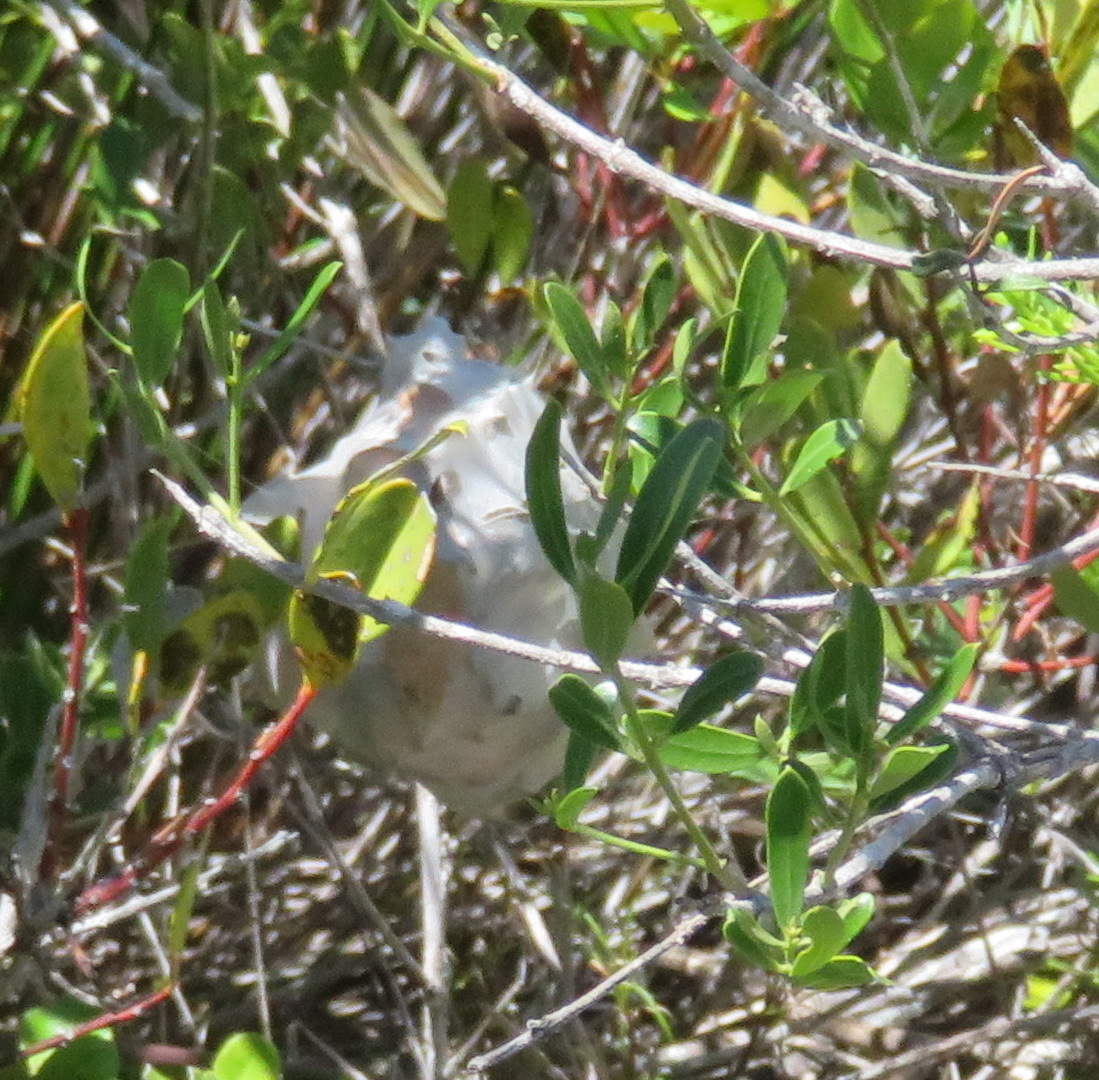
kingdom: Animalia
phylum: Arthropoda
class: Arachnida
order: Araneae
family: Sparassidae
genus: Palystes
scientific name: Palystes superciliosus
